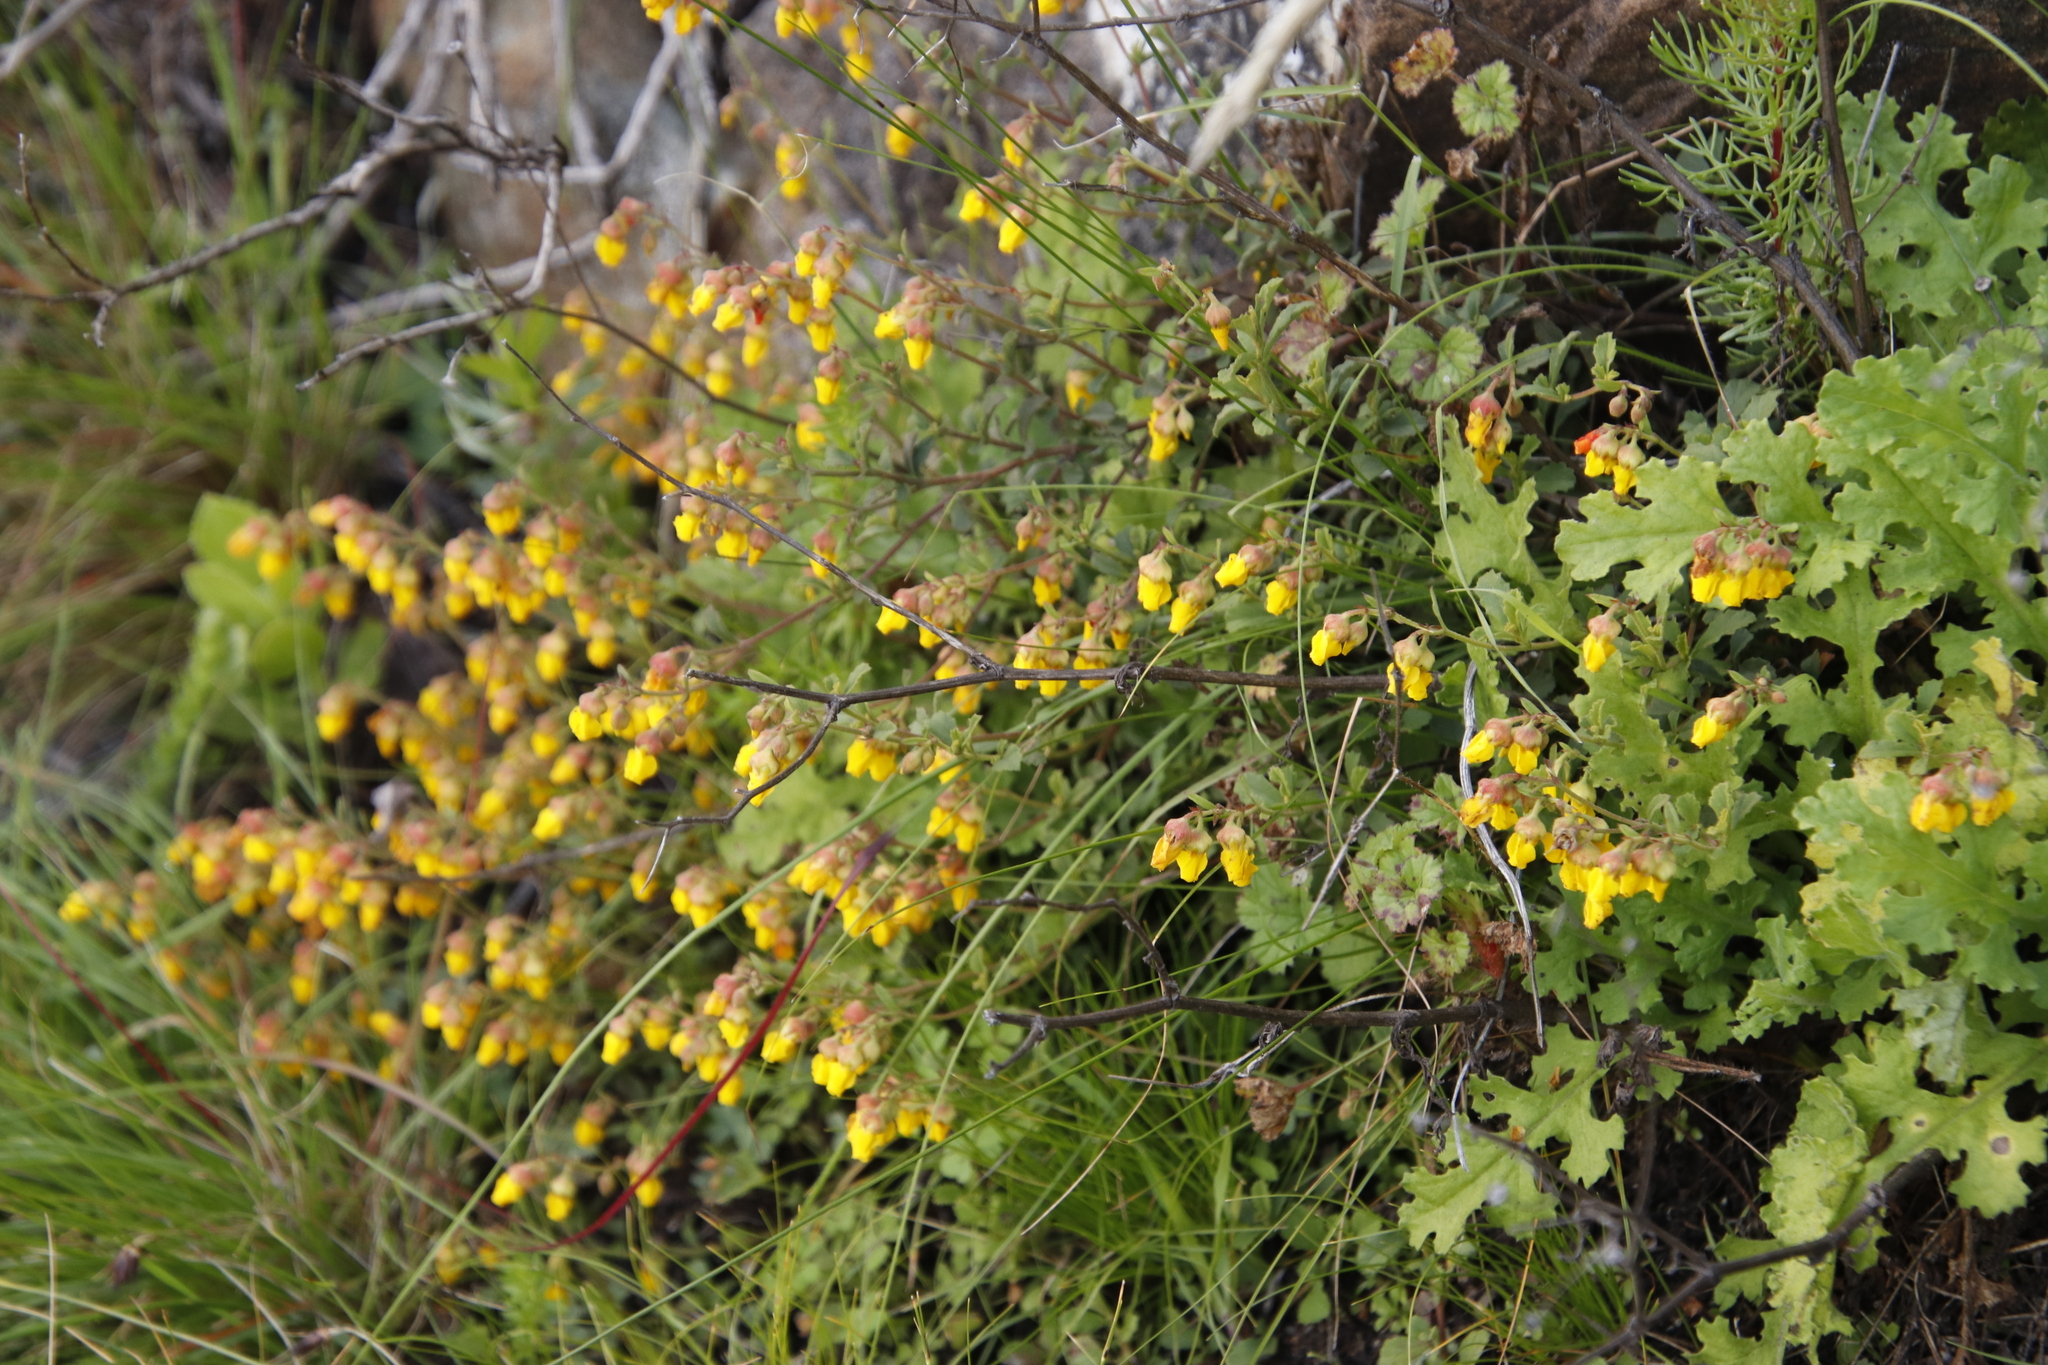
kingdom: Plantae
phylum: Tracheophyta
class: Magnoliopsida
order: Malvales
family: Malvaceae
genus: Hermannia
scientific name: Hermannia multiflora
